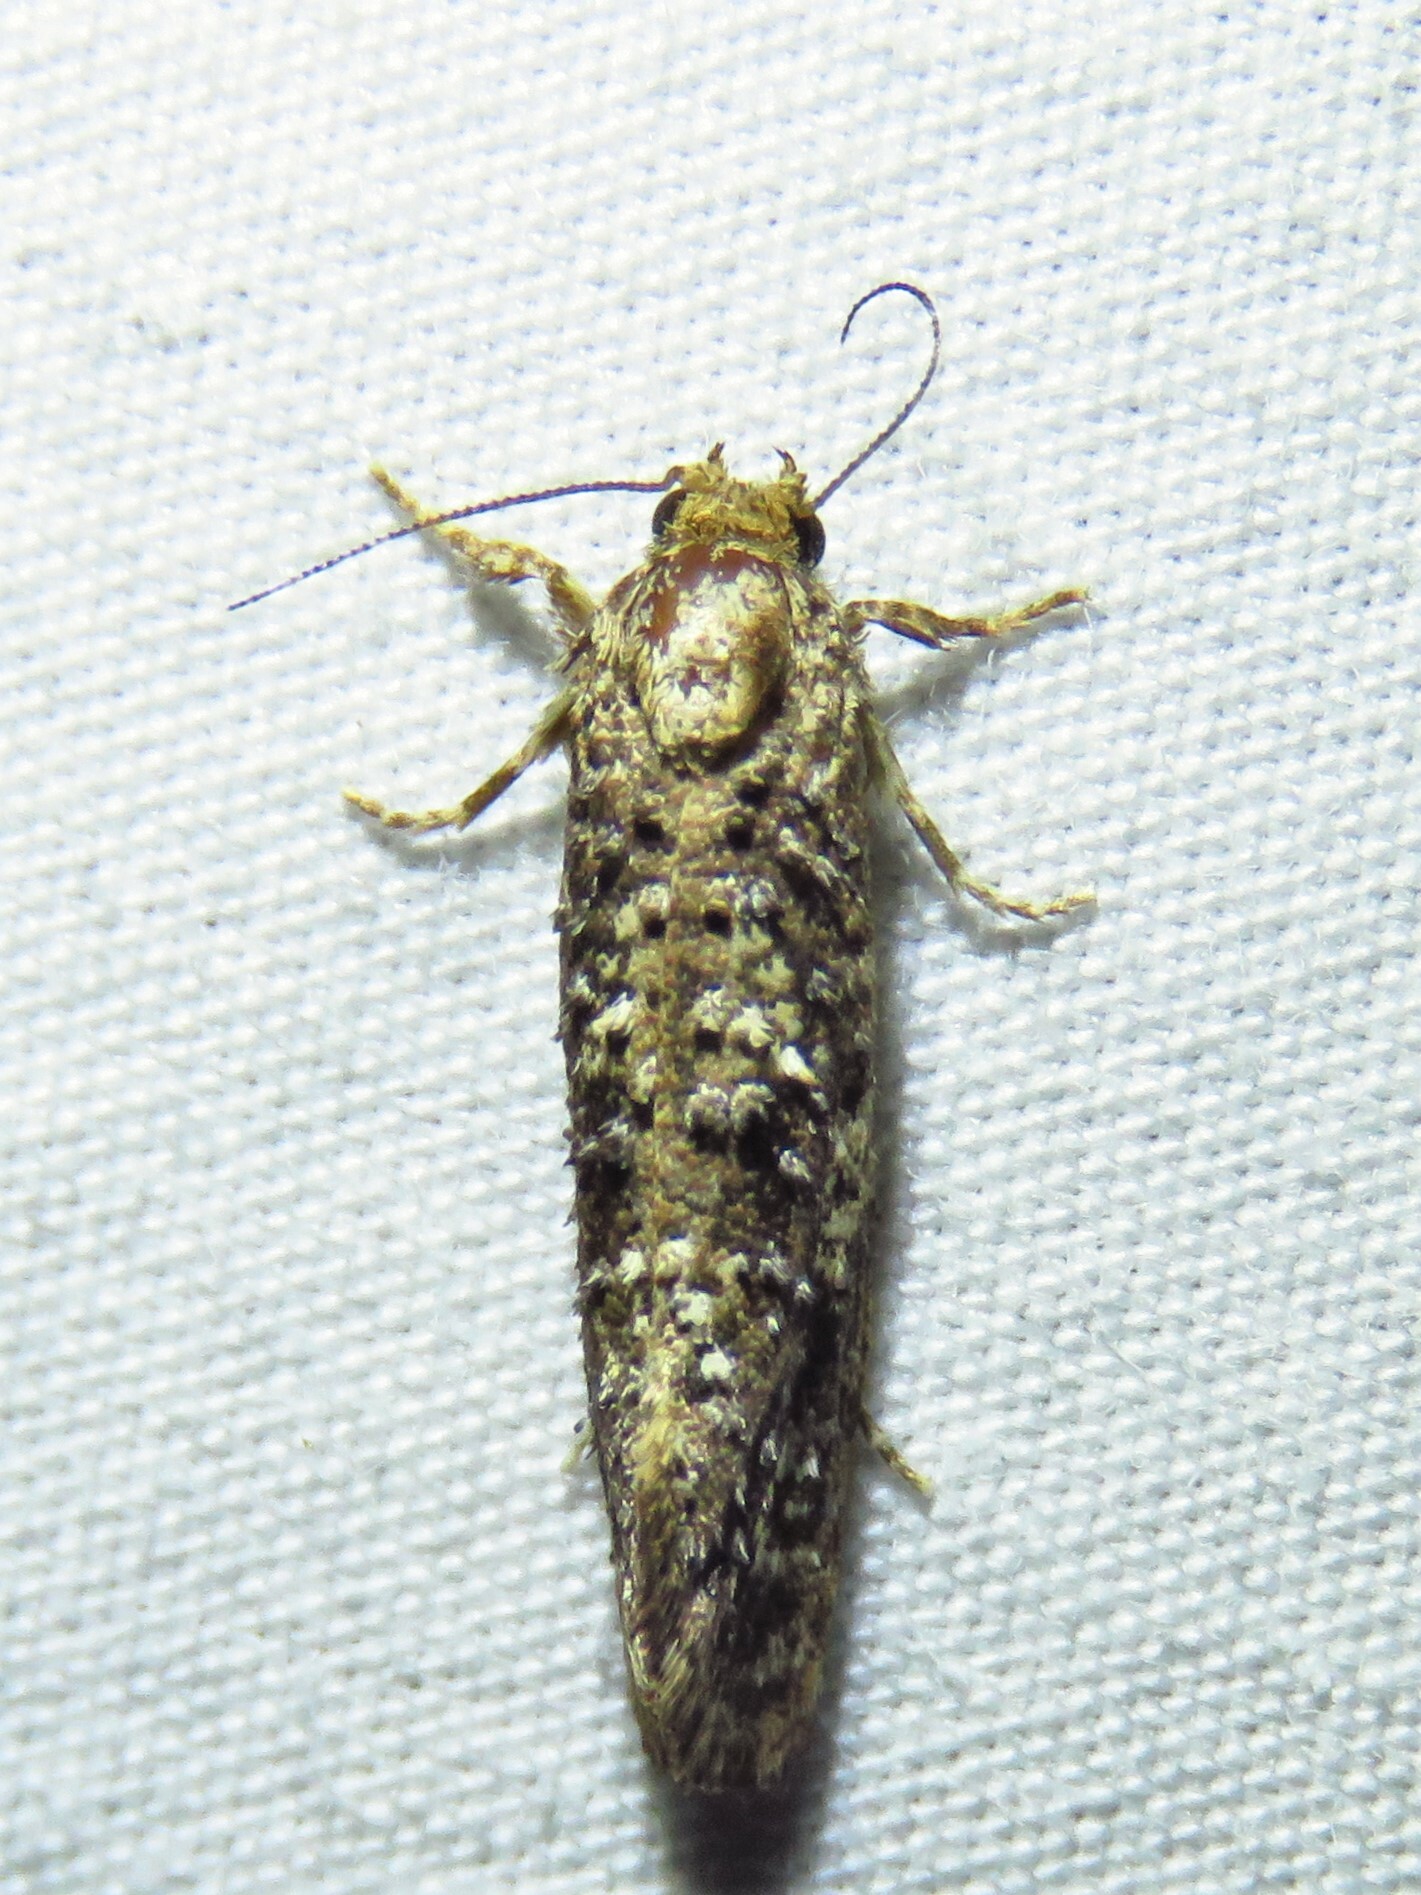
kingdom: Animalia
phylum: Arthropoda
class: Insecta
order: Lepidoptera
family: Tineidae
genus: Acrolophus
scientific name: Acrolophus cressoni
